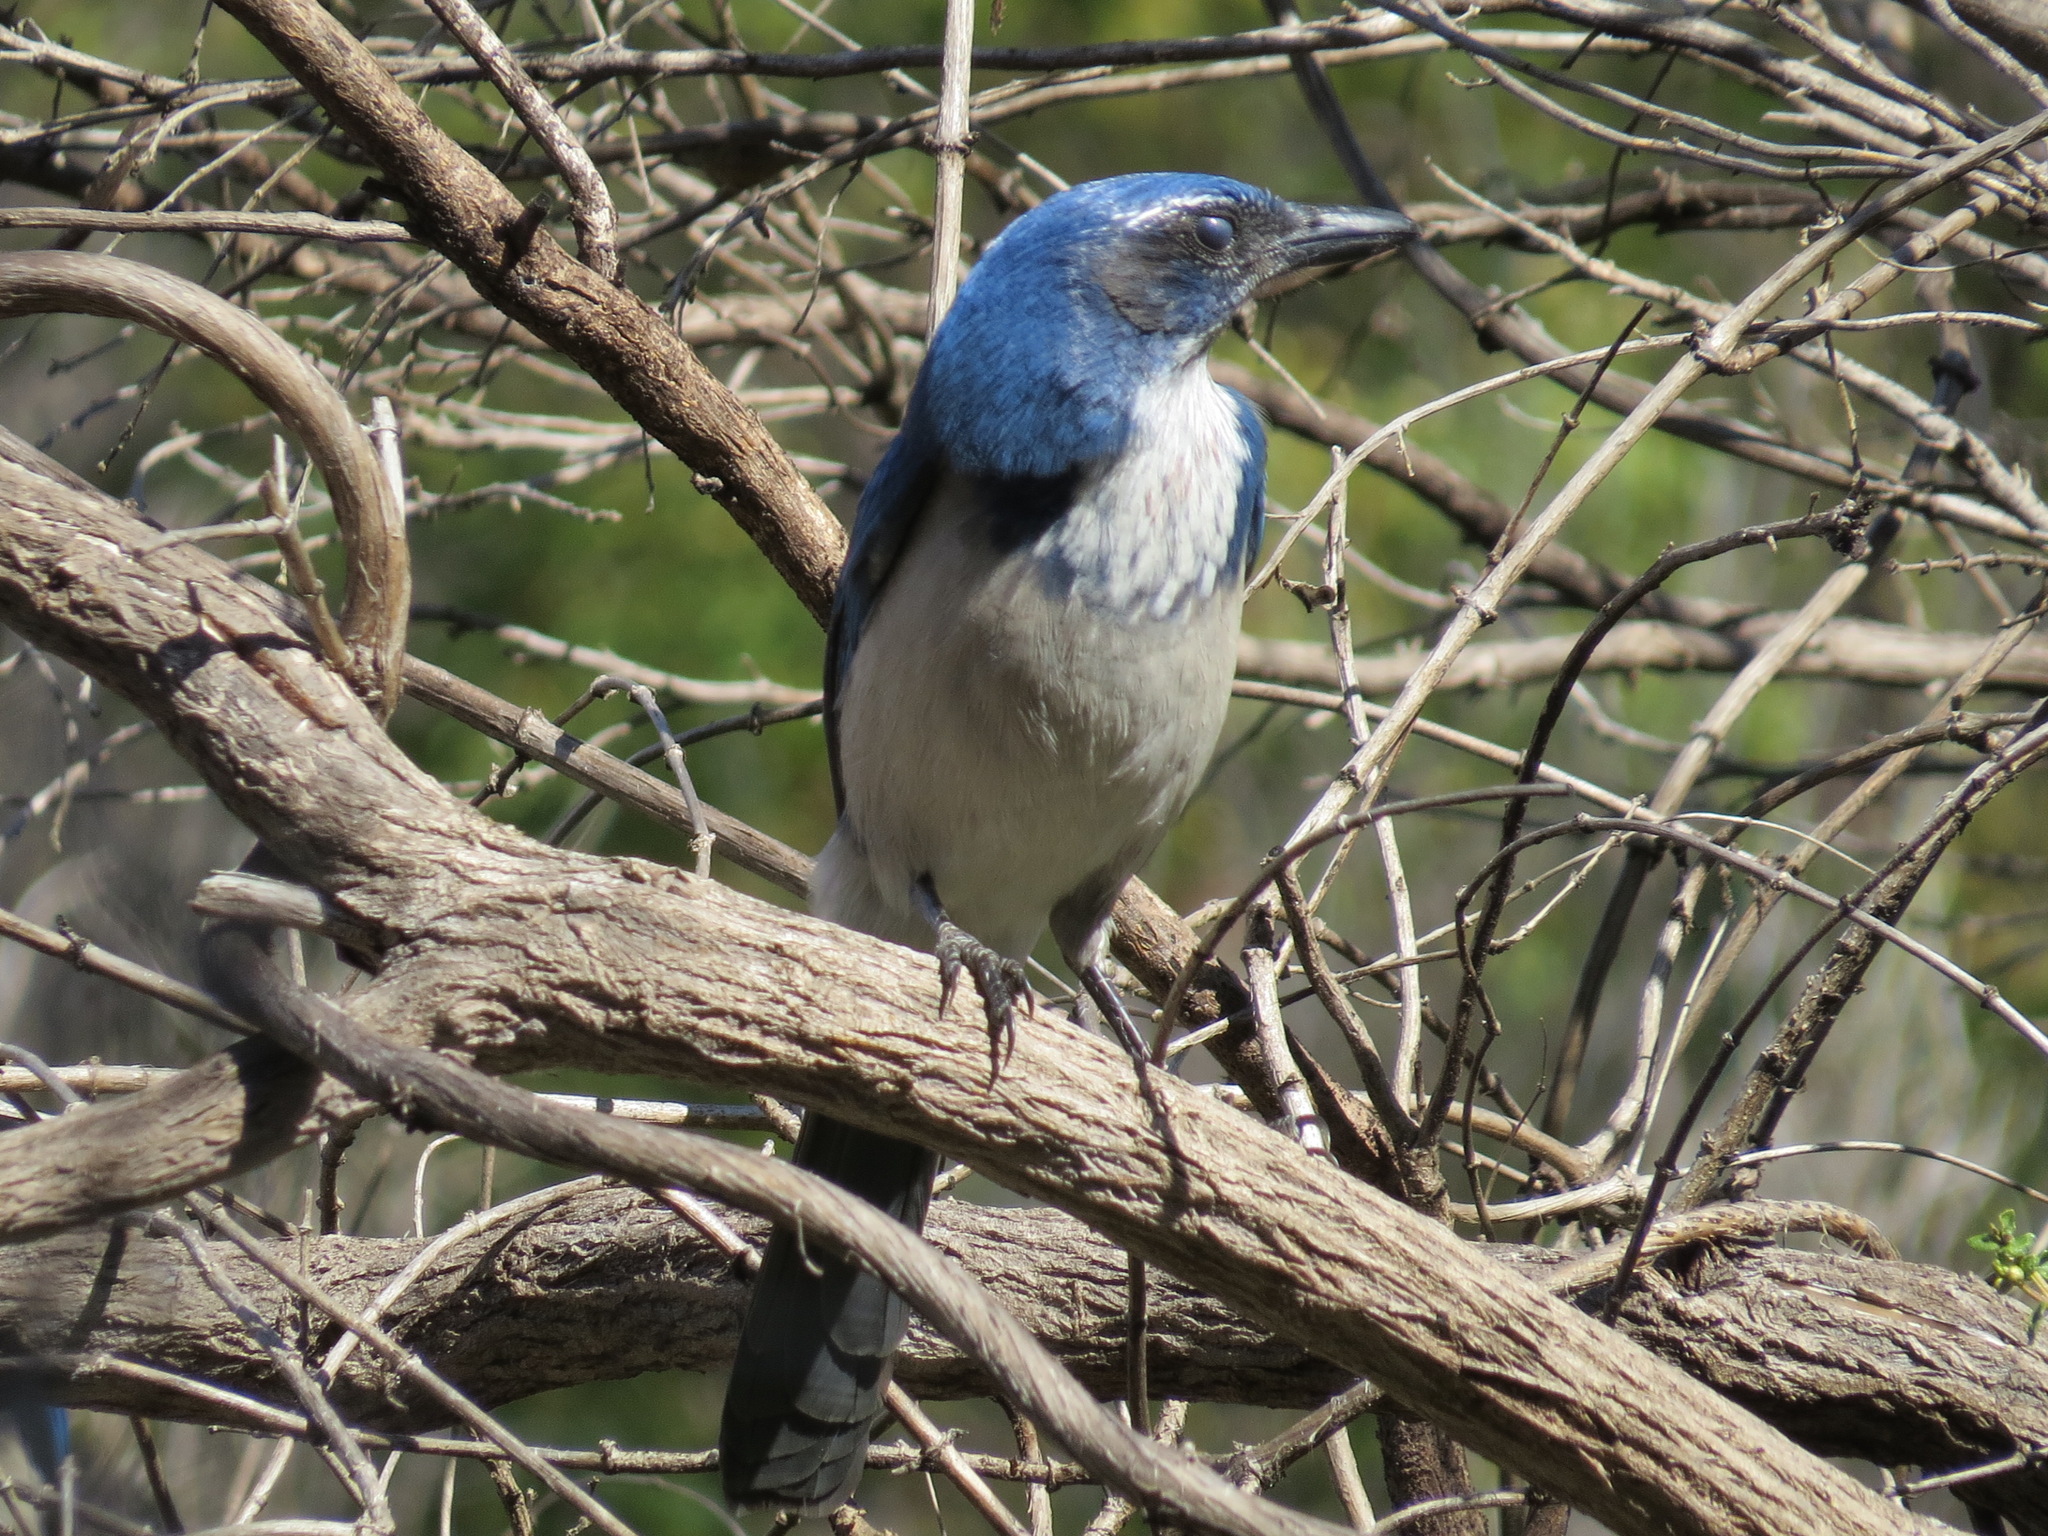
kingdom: Animalia
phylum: Chordata
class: Aves
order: Passeriformes
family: Corvidae
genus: Aphelocoma
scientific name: Aphelocoma californica
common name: California scrub-jay
